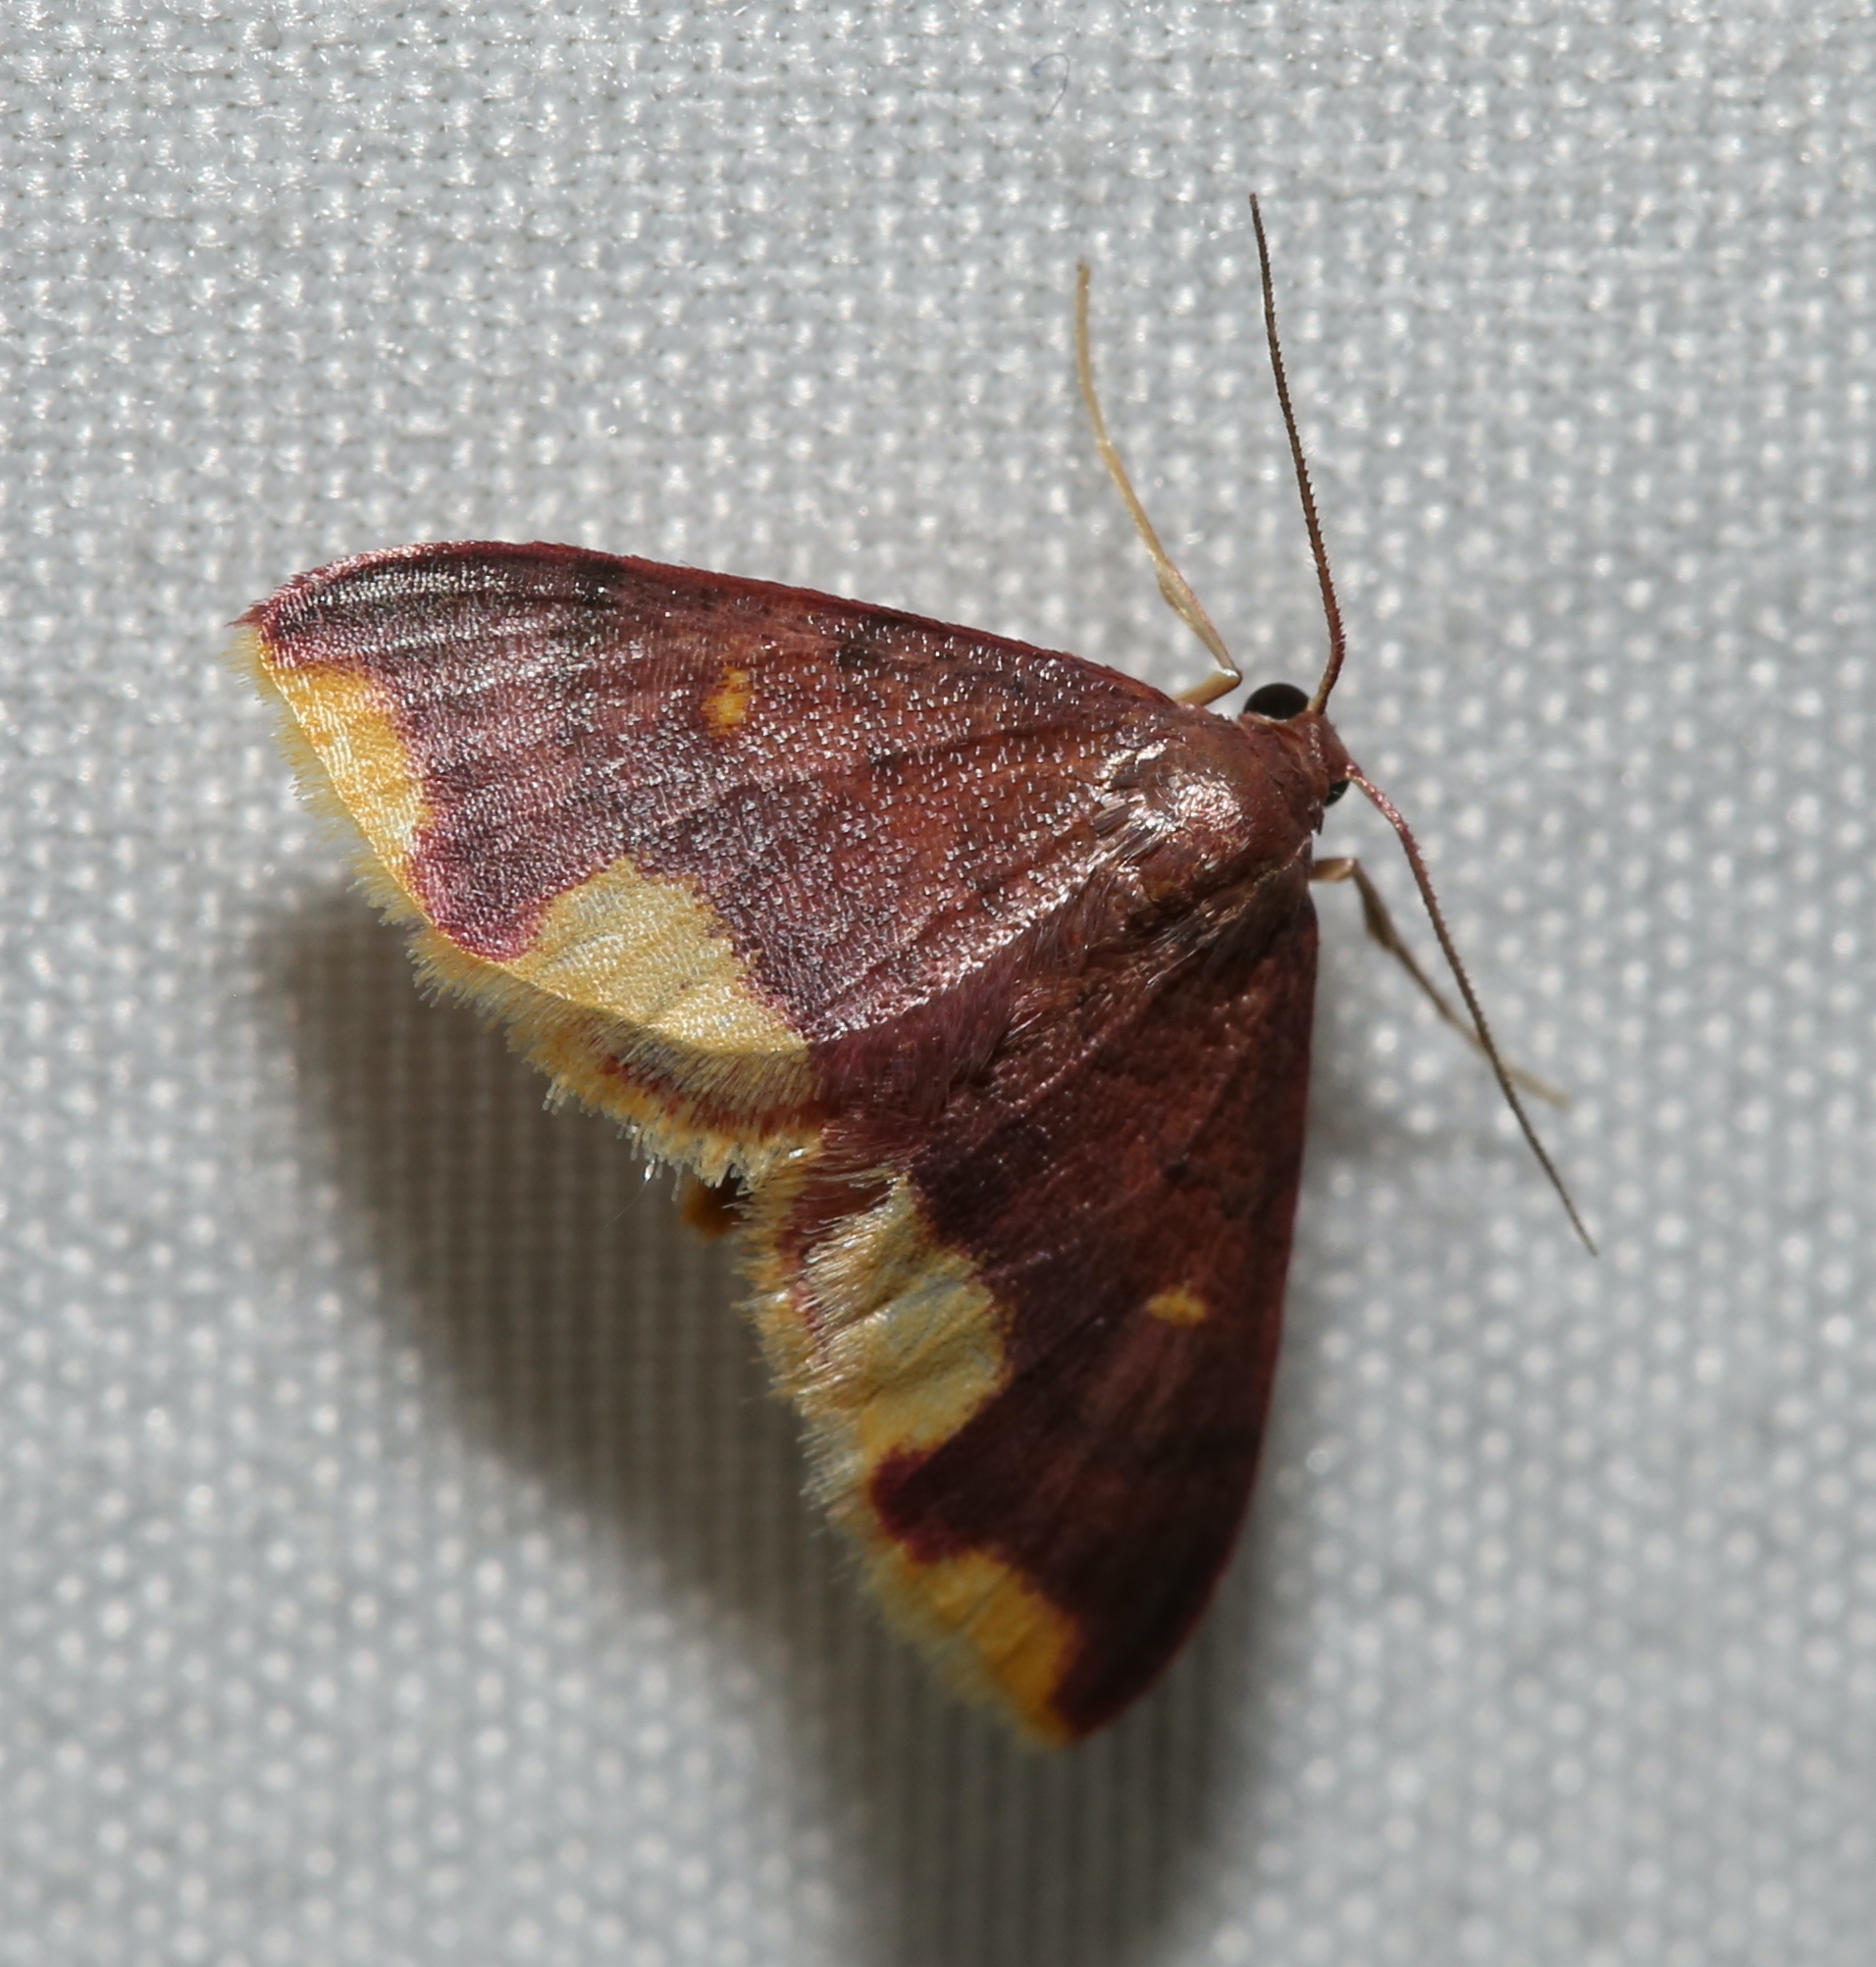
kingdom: Animalia
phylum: Arthropoda
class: Insecta
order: Lepidoptera
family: Geometridae
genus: Lophosis
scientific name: Lophosis labeculata
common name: Stained lophosis moth
